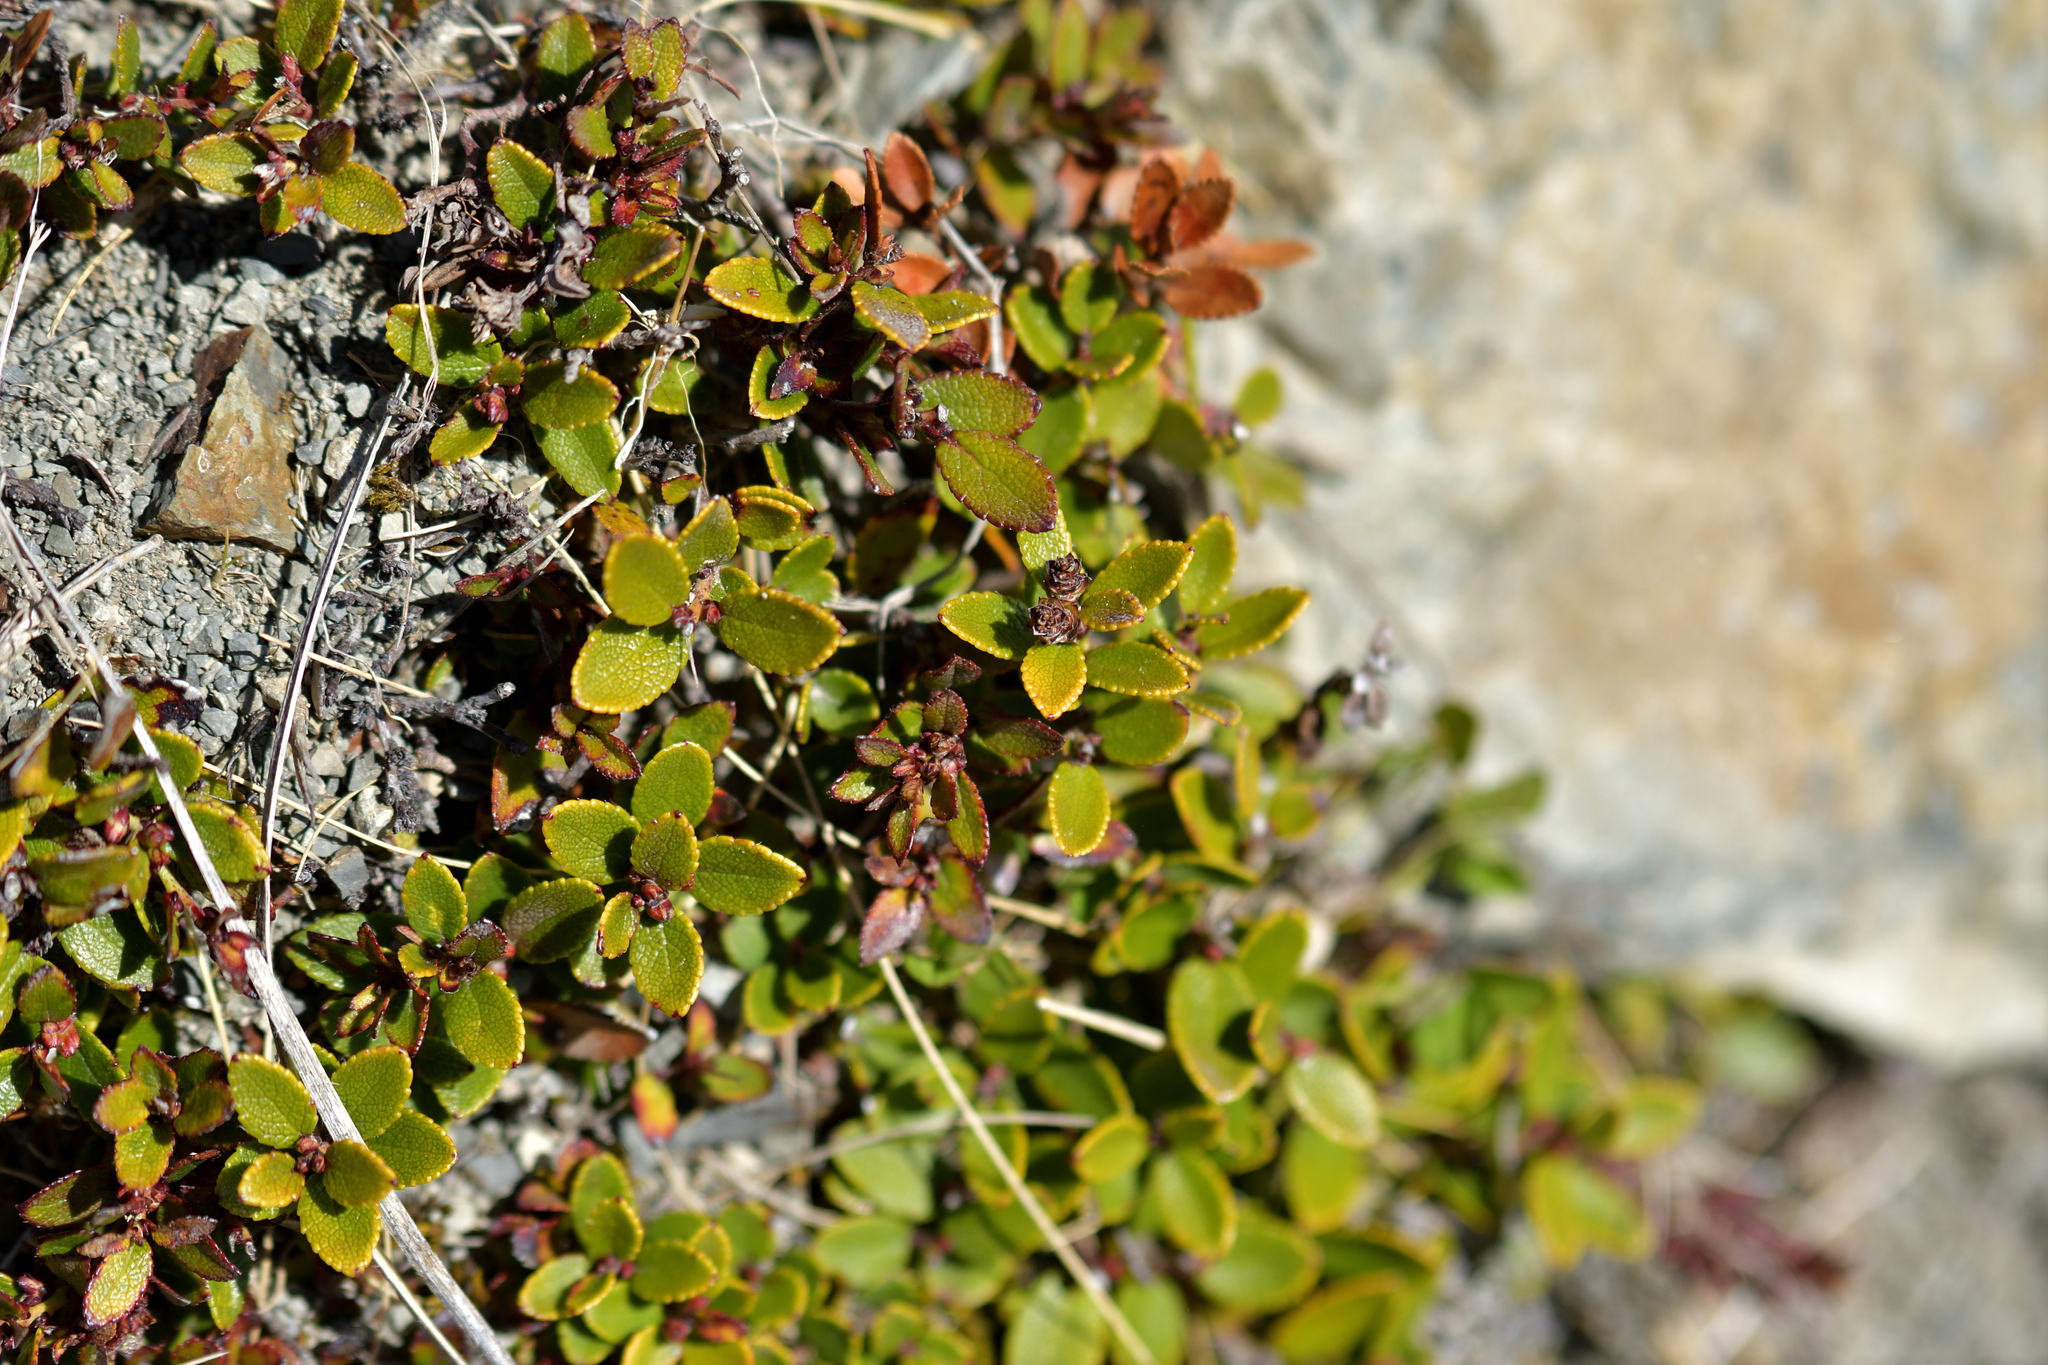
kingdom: Plantae
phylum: Tracheophyta
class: Magnoliopsida
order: Ericales
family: Ericaceae
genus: Gaultheria
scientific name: Gaultheria depressa
